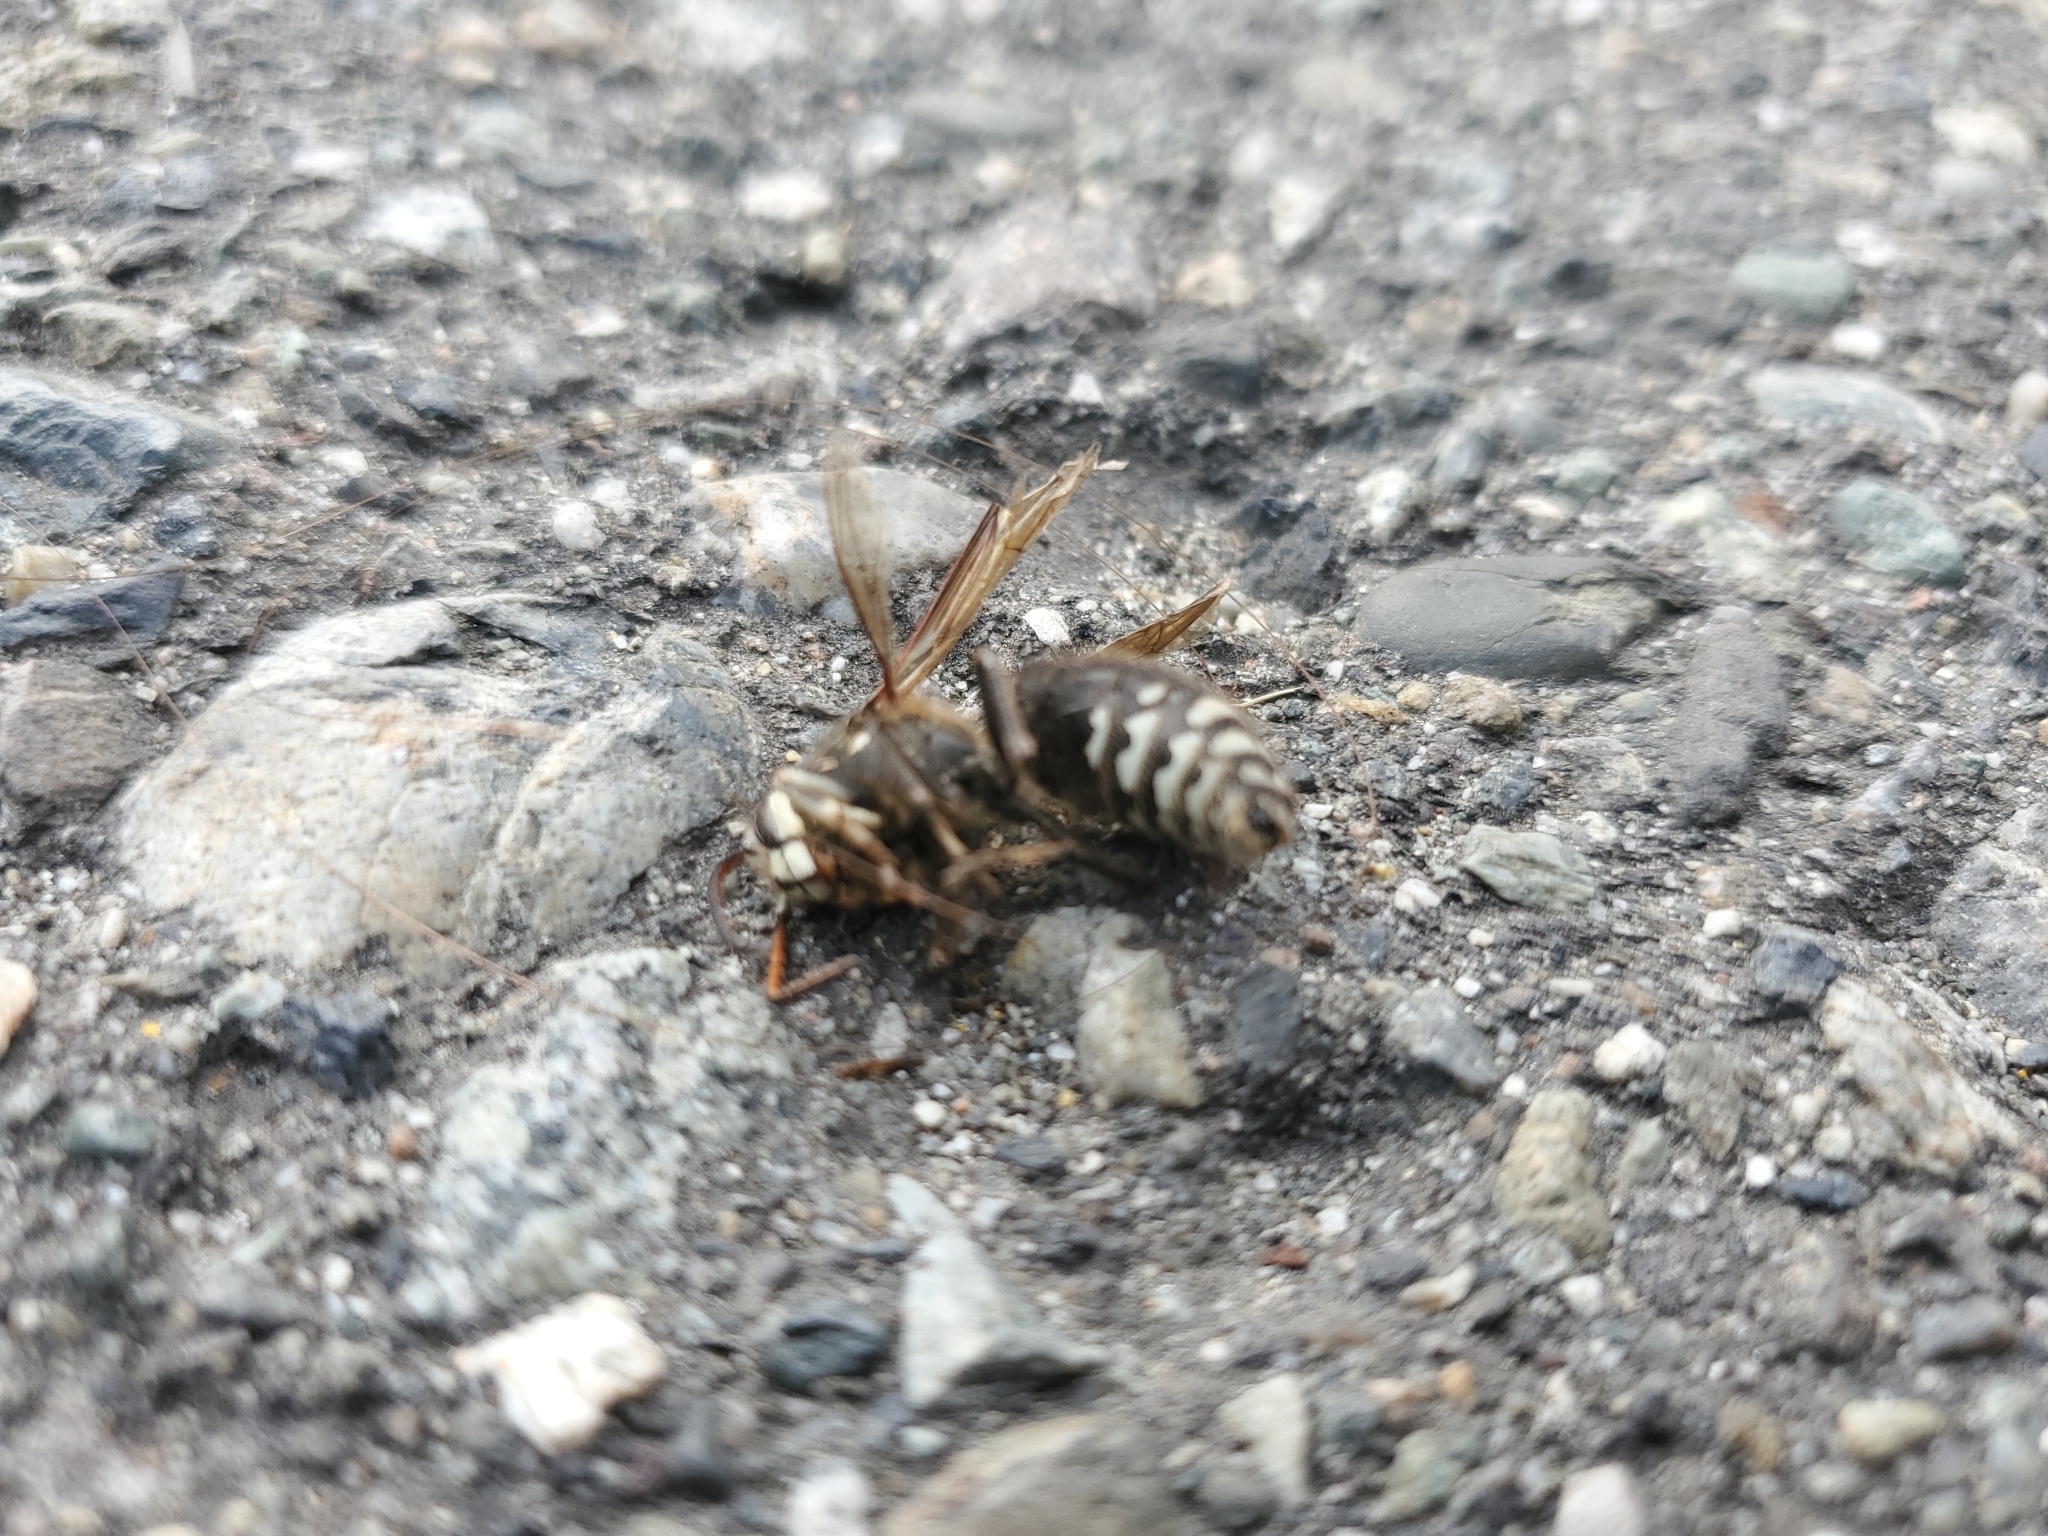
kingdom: Animalia
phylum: Arthropoda
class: Insecta
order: Hymenoptera
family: Vespidae
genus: Dolichovespula
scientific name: Dolichovespula maculata
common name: Bald-faced hornet
